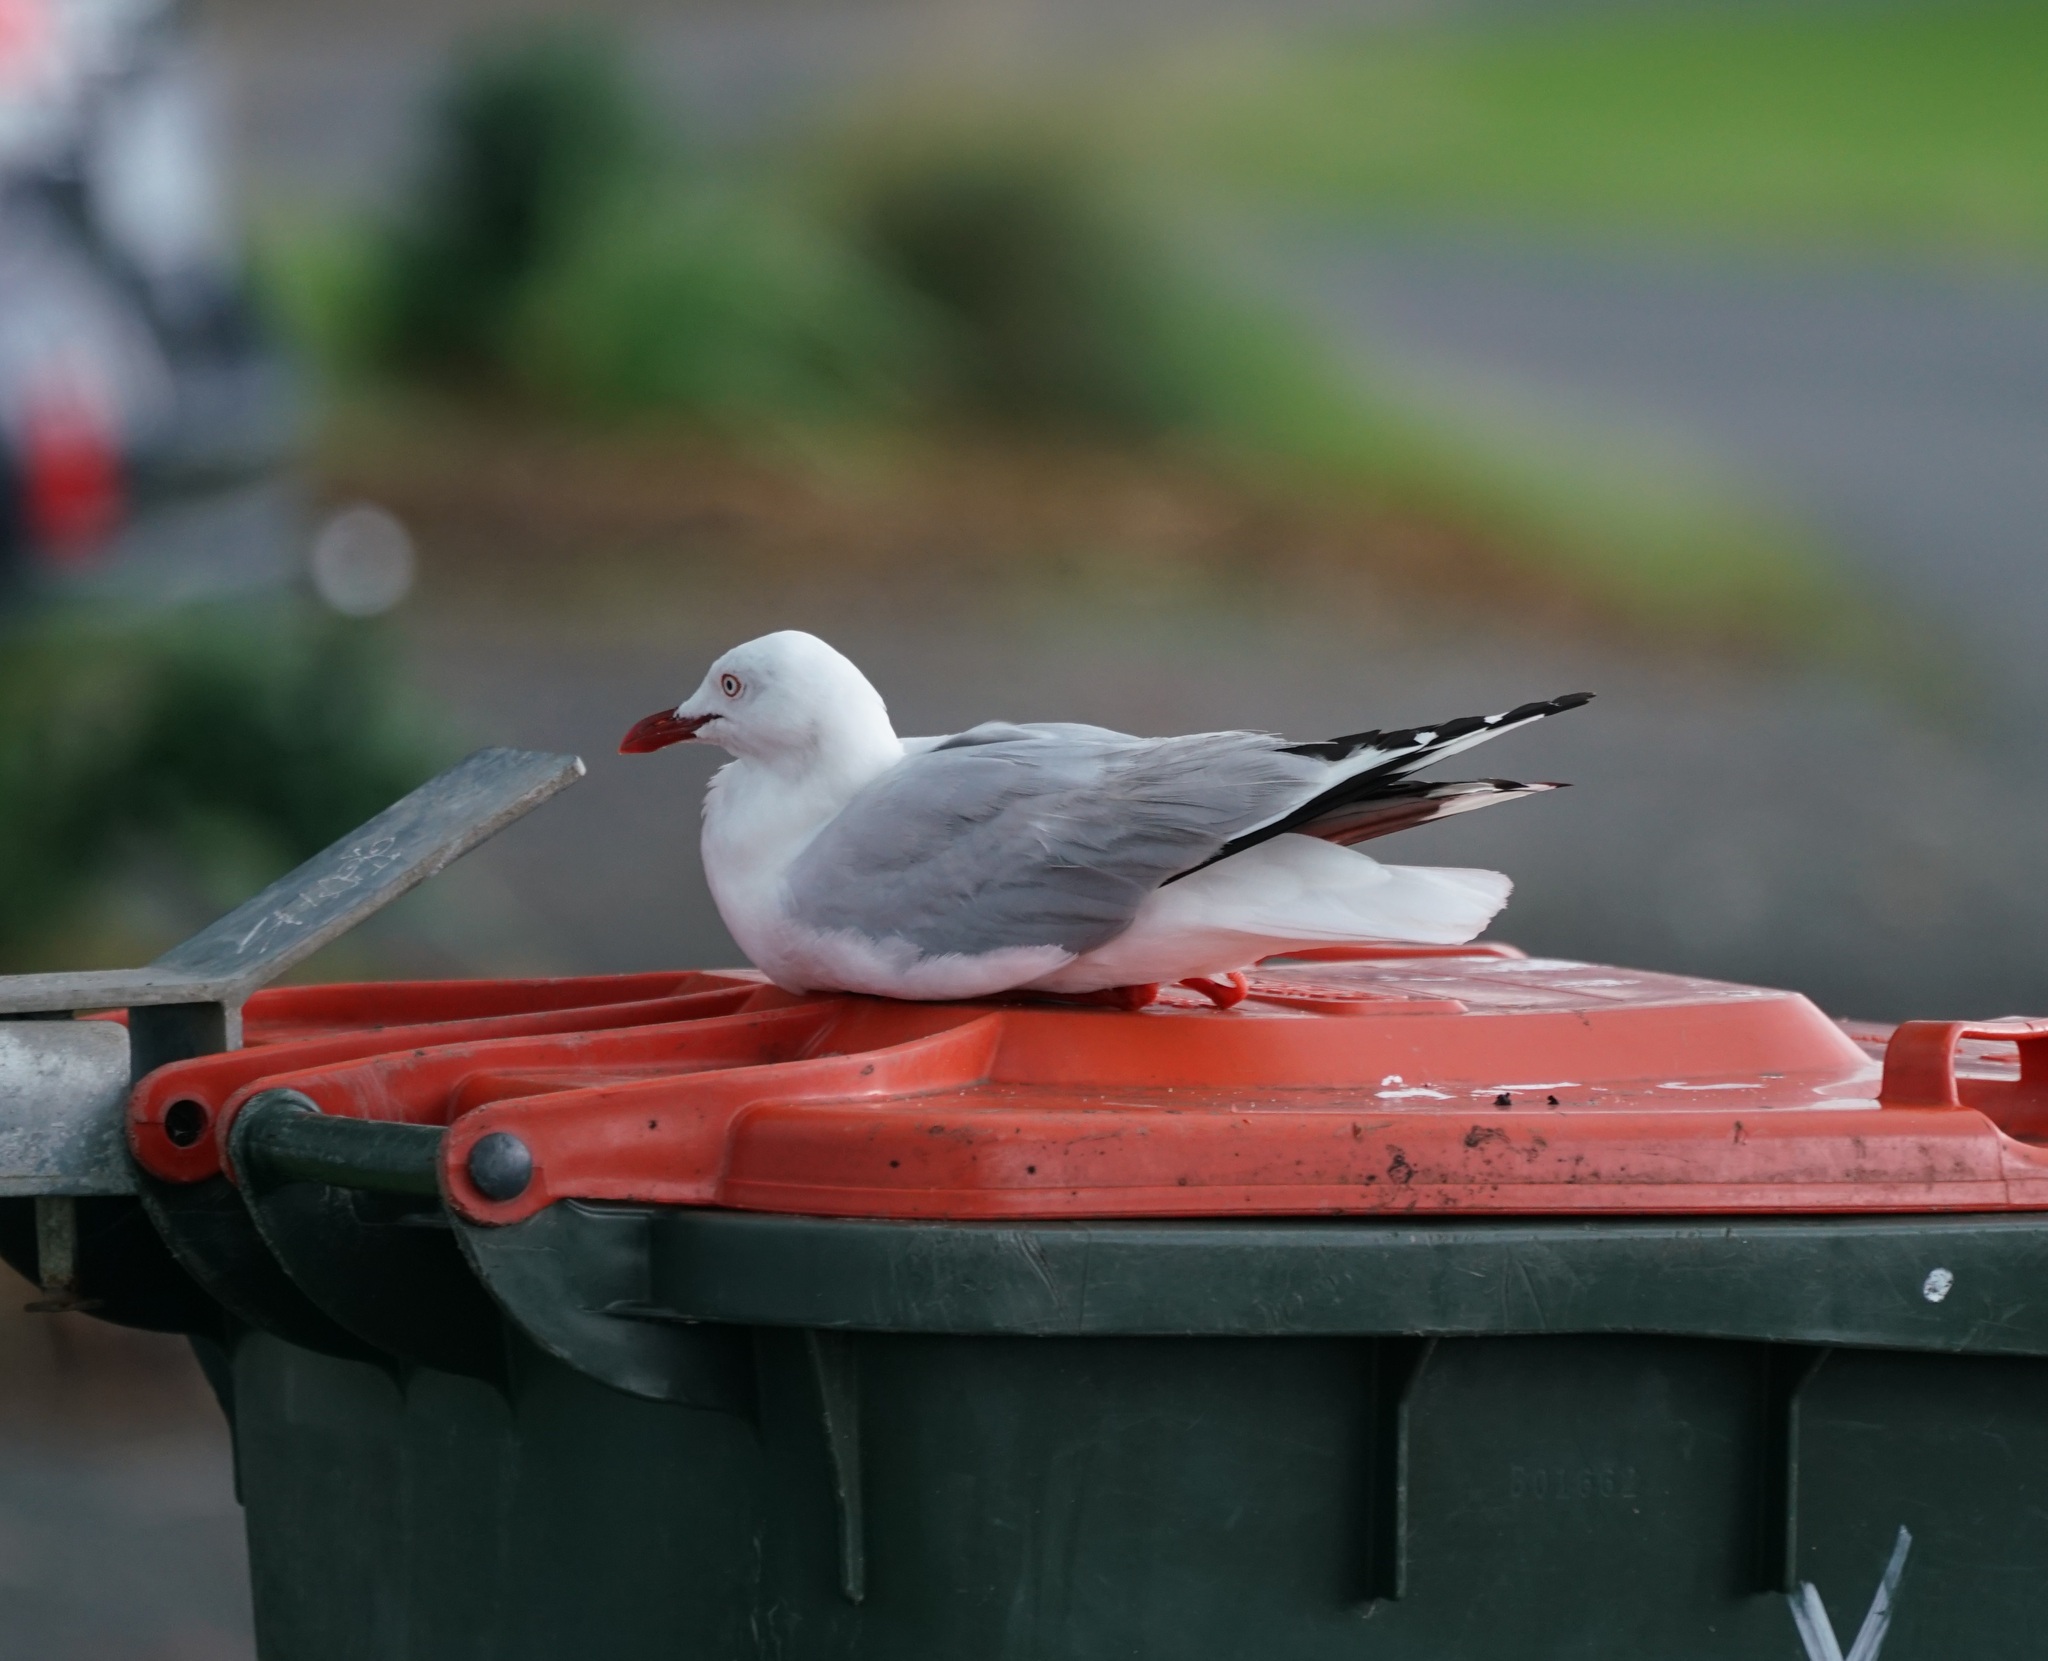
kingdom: Animalia
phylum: Chordata
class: Aves
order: Charadriiformes
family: Laridae
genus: Chroicocephalus
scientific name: Chroicocephalus novaehollandiae
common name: Silver gull
